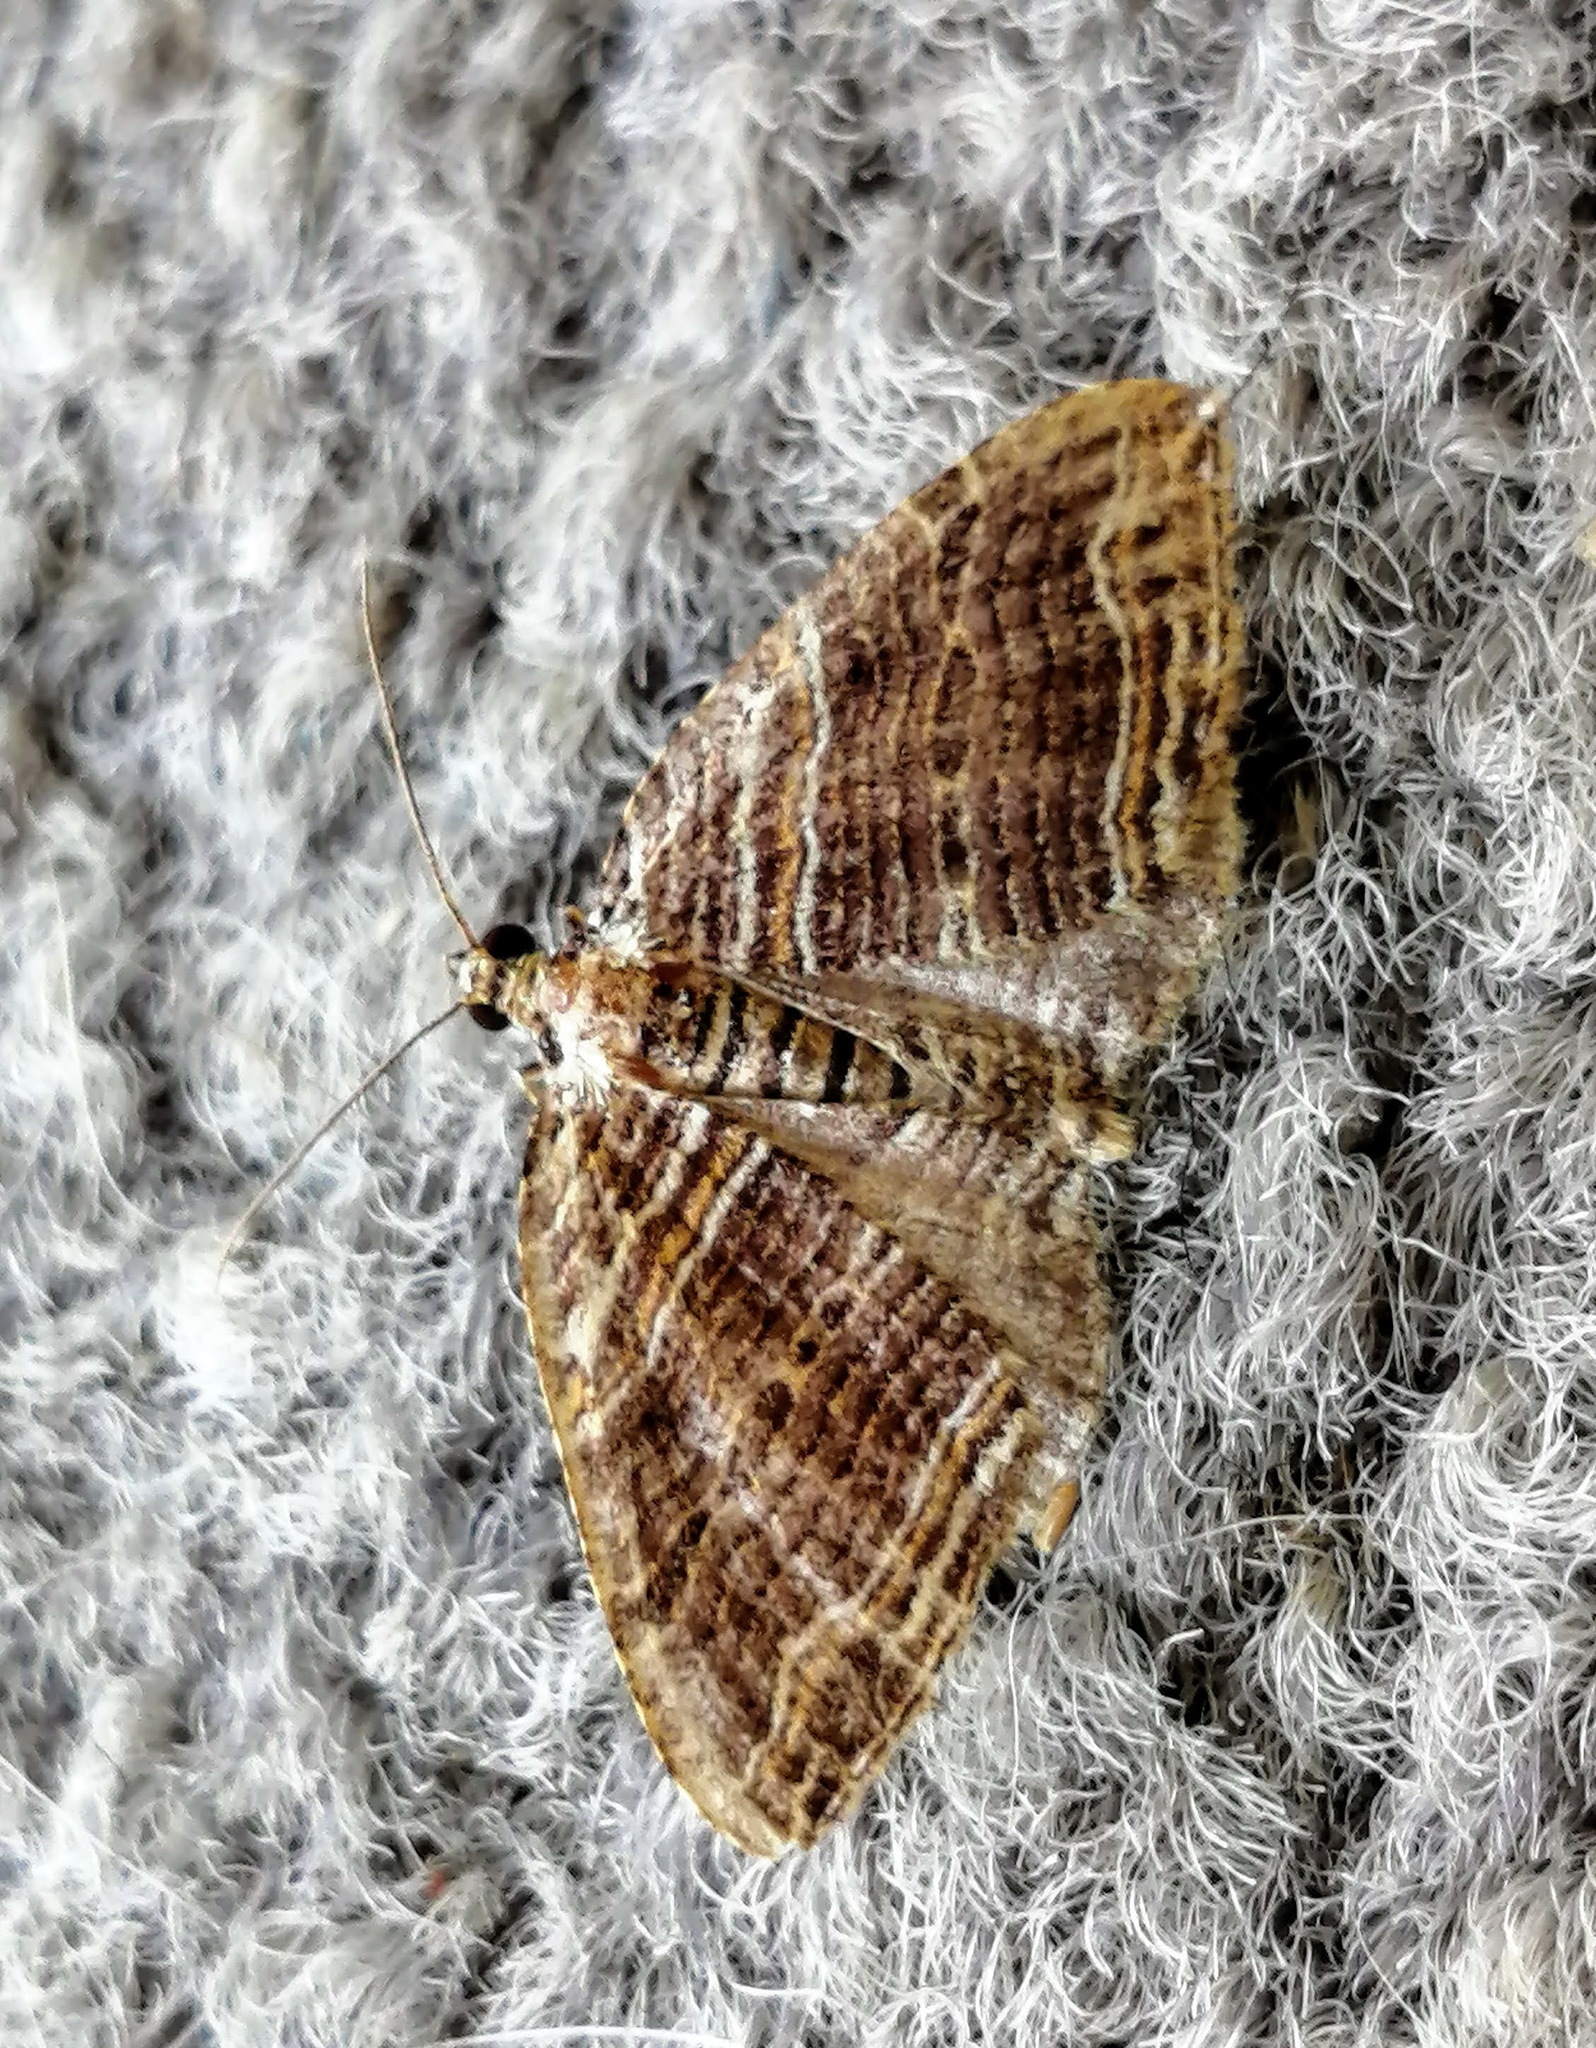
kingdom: Animalia
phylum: Arthropoda
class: Insecta
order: Lepidoptera
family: Geometridae
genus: Anticlea
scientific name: Anticlea multiferata
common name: Many-lined carpet
